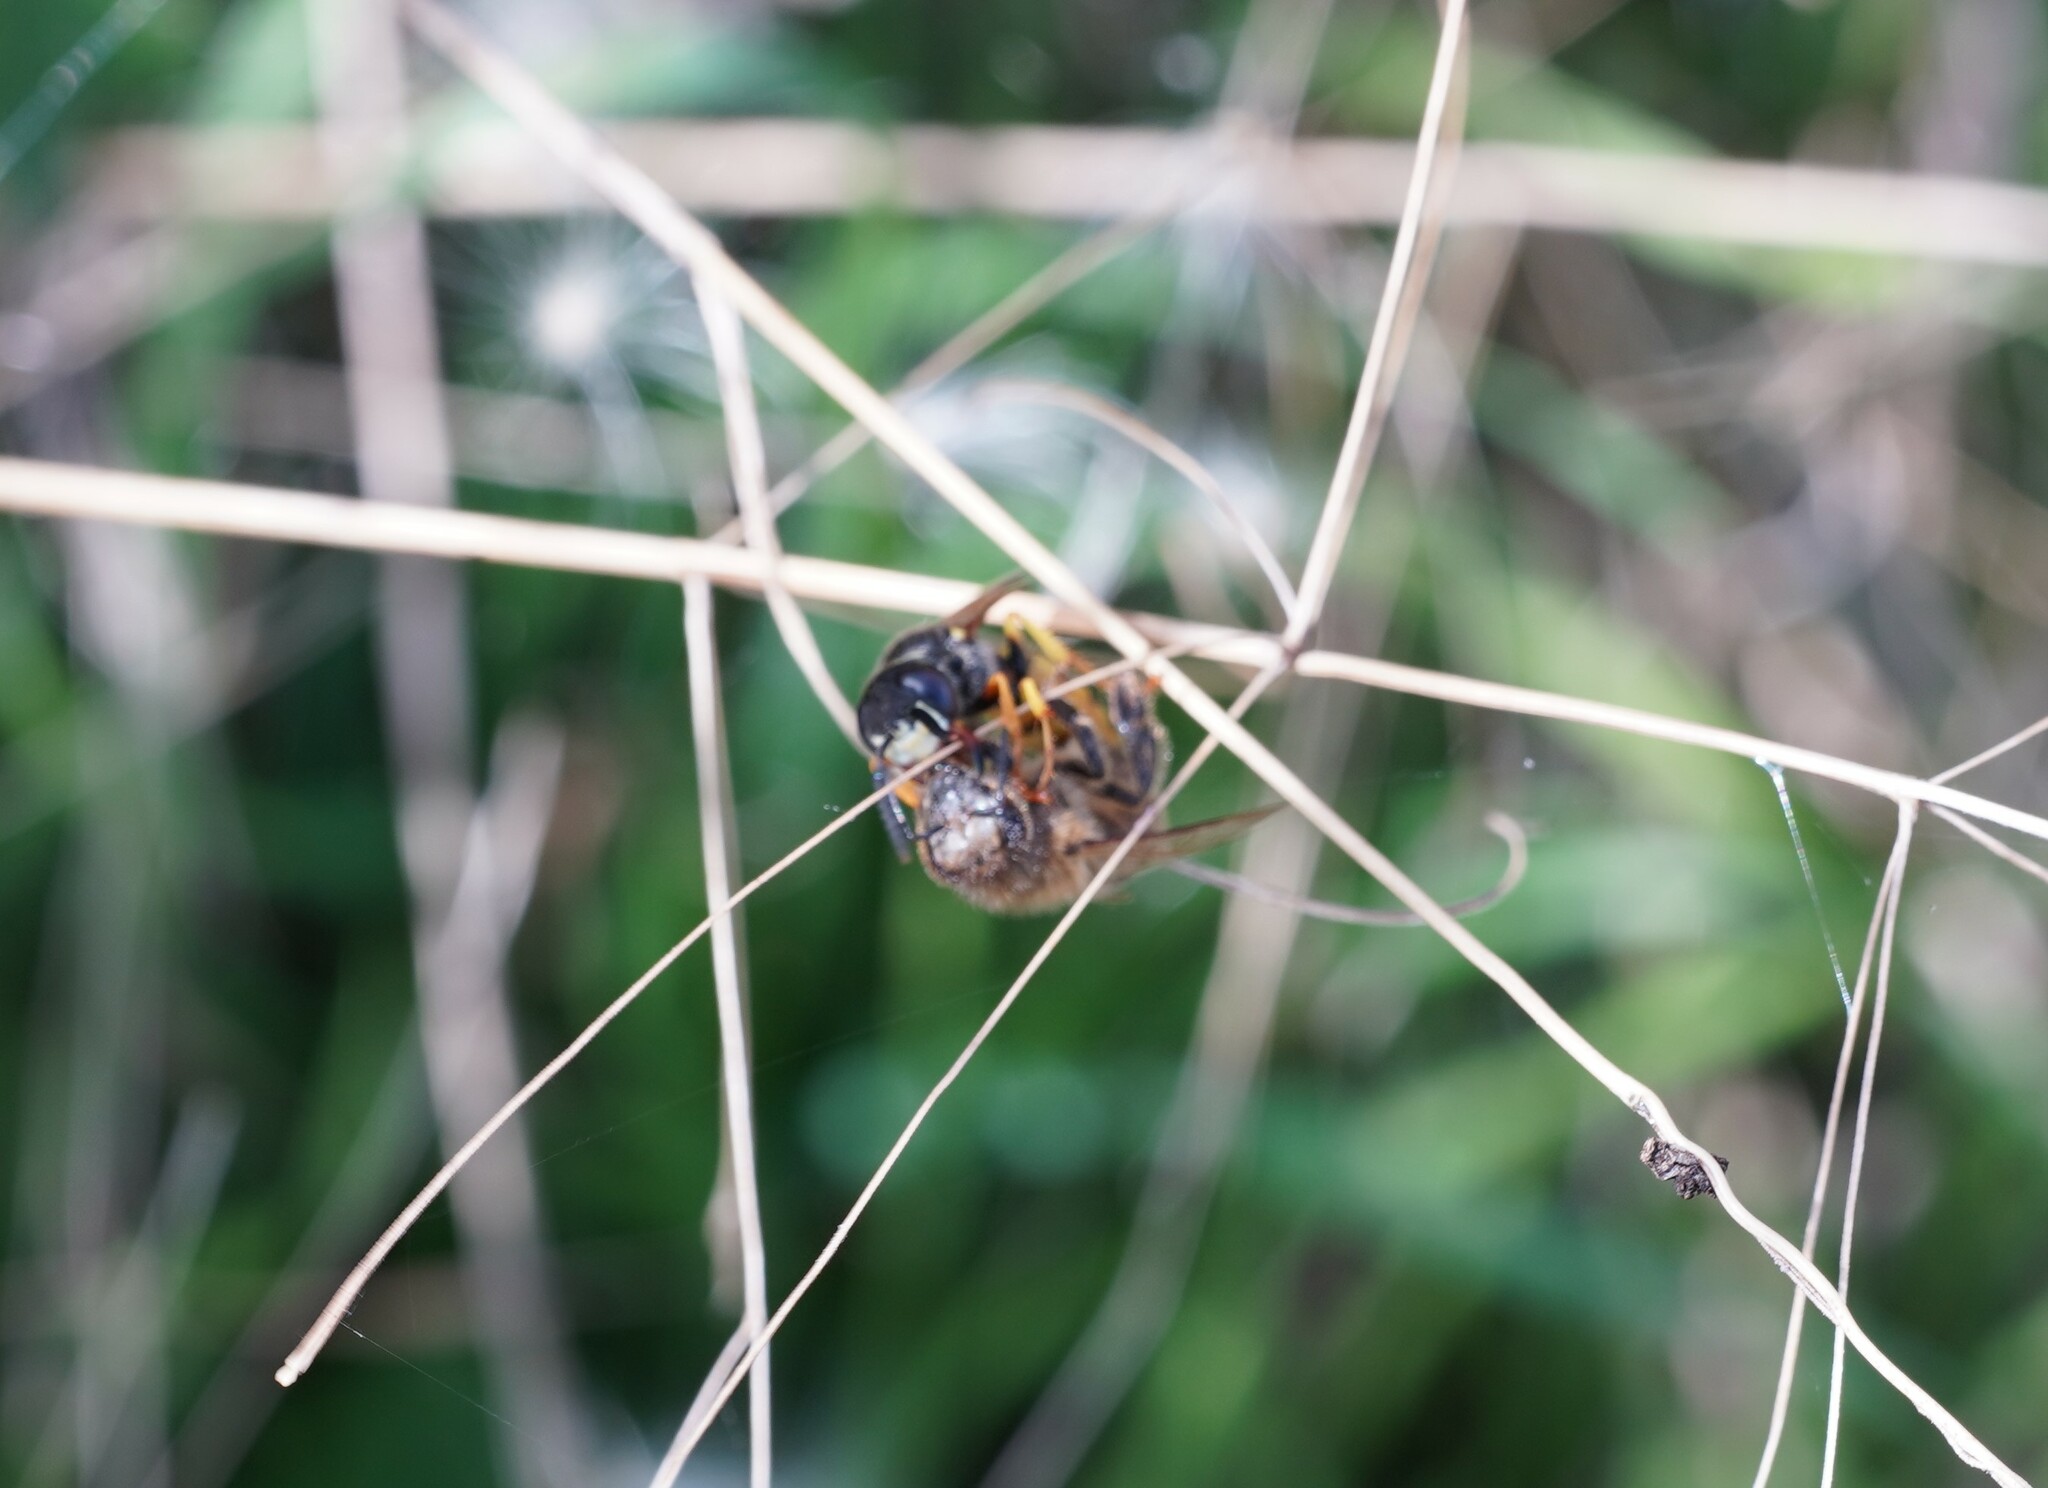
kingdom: Animalia
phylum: Arthropoda
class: Insecta
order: Hymenoptera
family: Crabronidae
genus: Philanthus
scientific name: Philanthus triangulum
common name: Bee wolf
